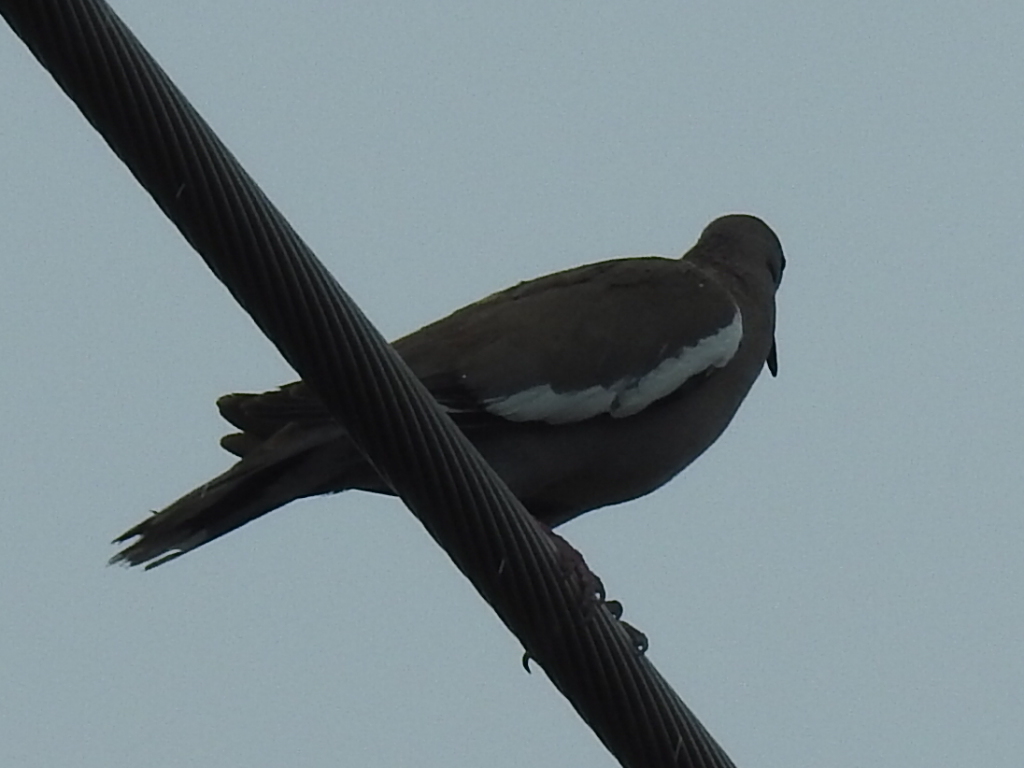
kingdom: Animalia
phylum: Chordata
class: Aves
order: Columbiformes
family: Columbidae
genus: Zenaida
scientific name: Zenaida asiatica
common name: White-winged dove
